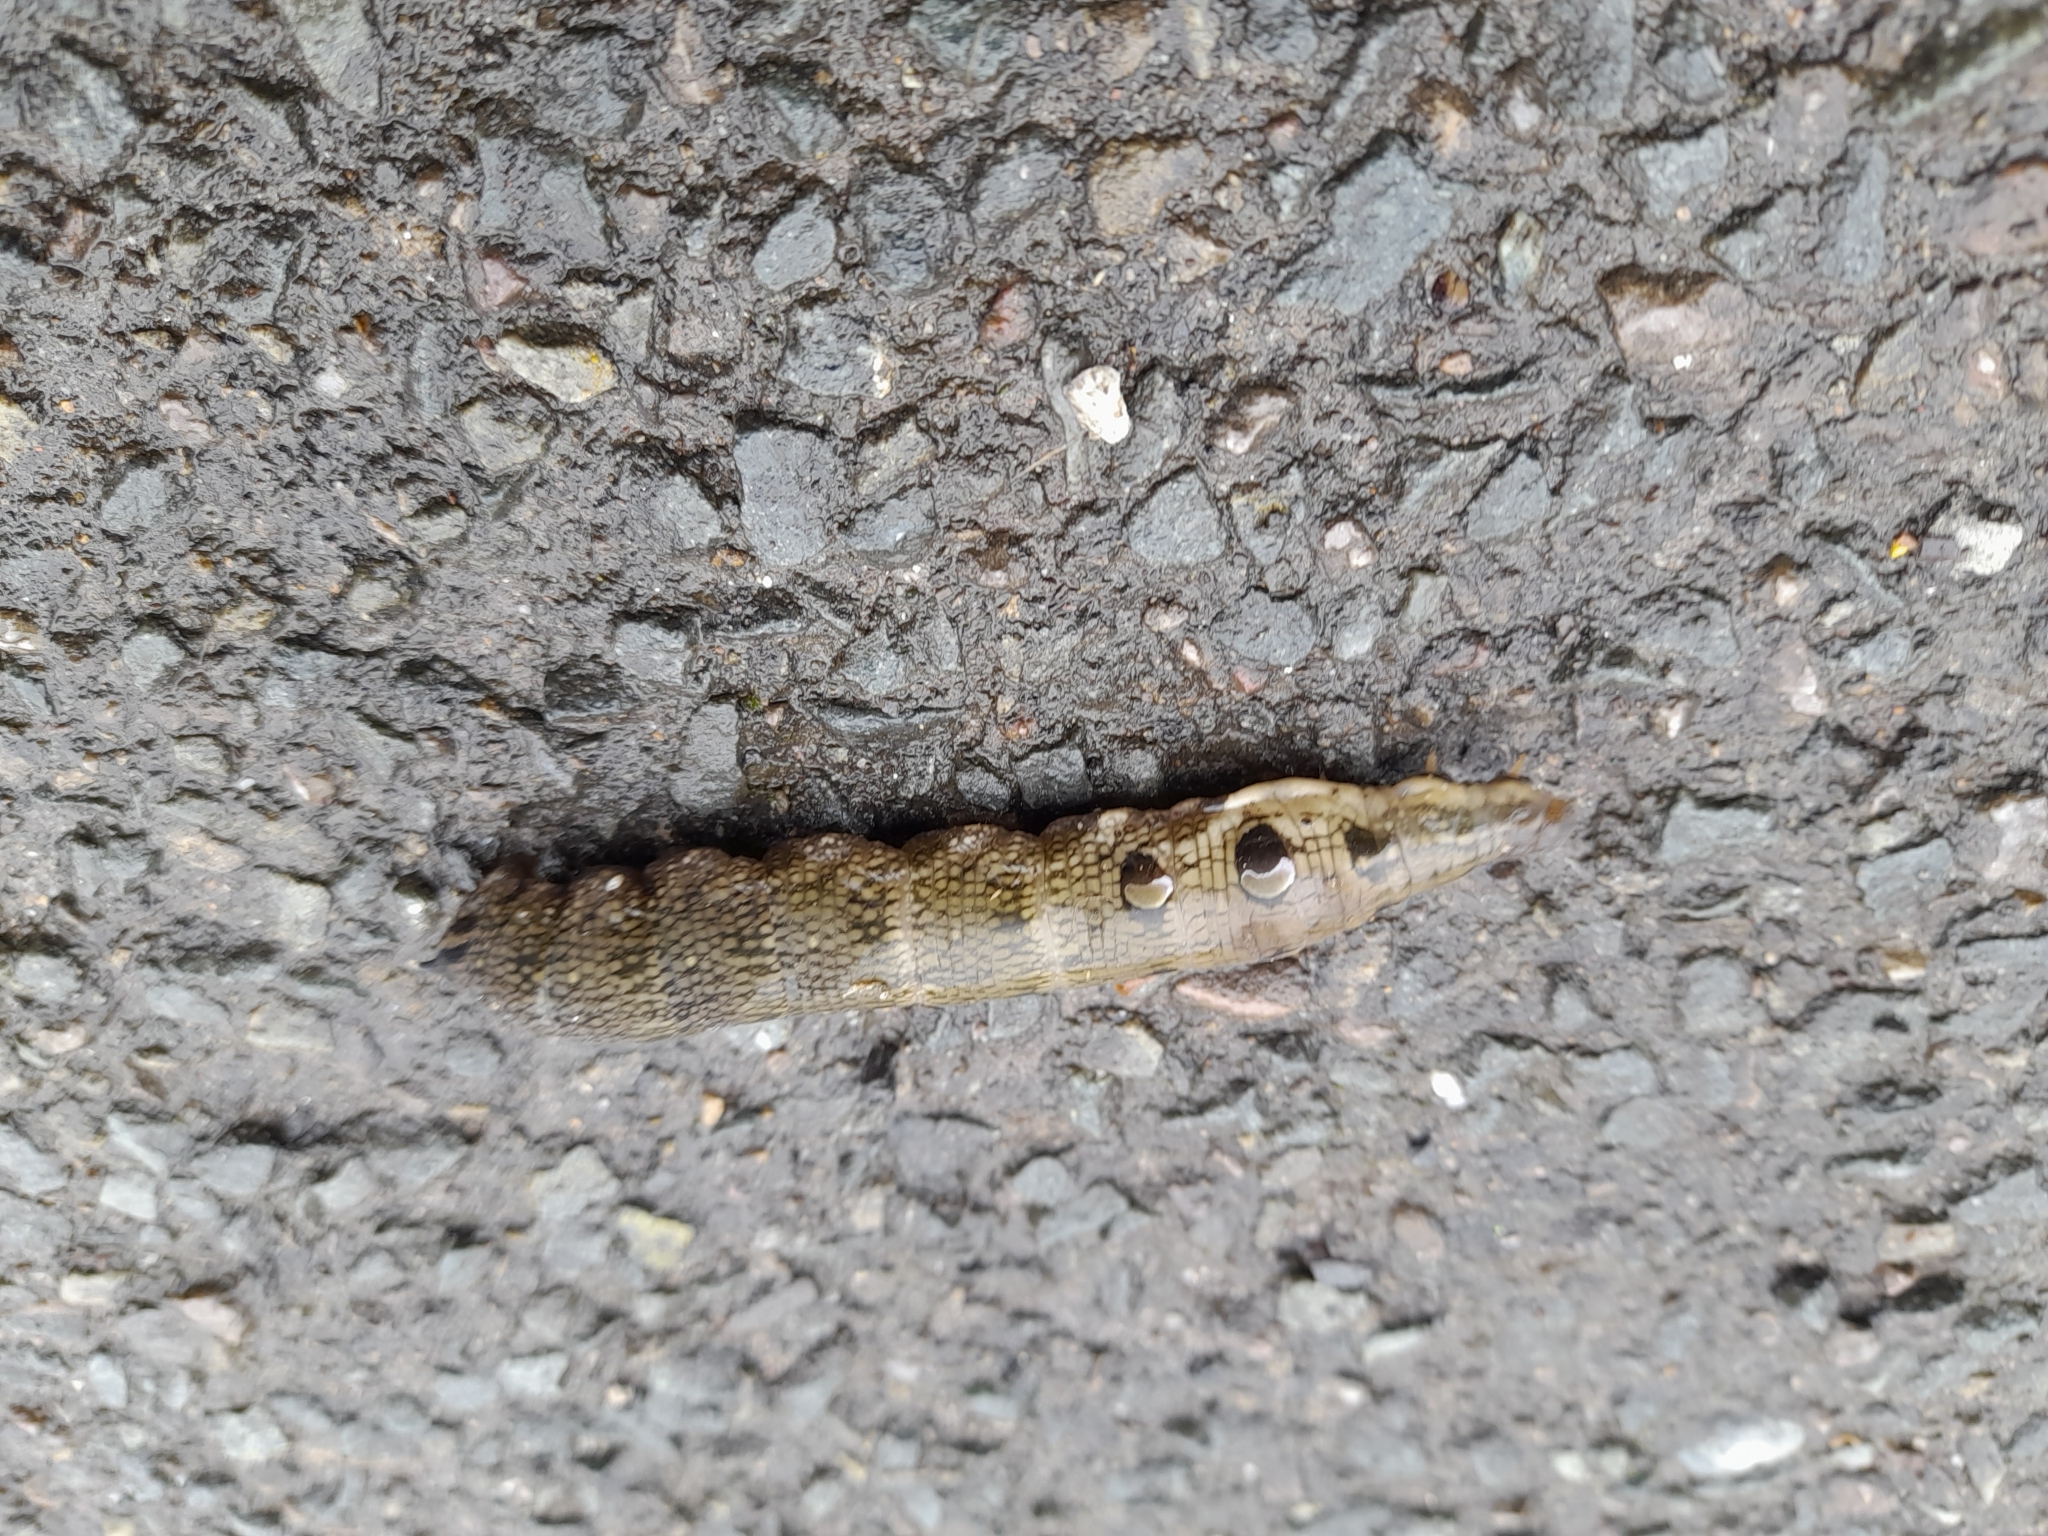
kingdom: Animalia
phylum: Arthropoda
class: Insecta
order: Lepidoptera
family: Sphingidae
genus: Deilephila
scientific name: Deilephila elpenor
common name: Elephant hawk-moth
